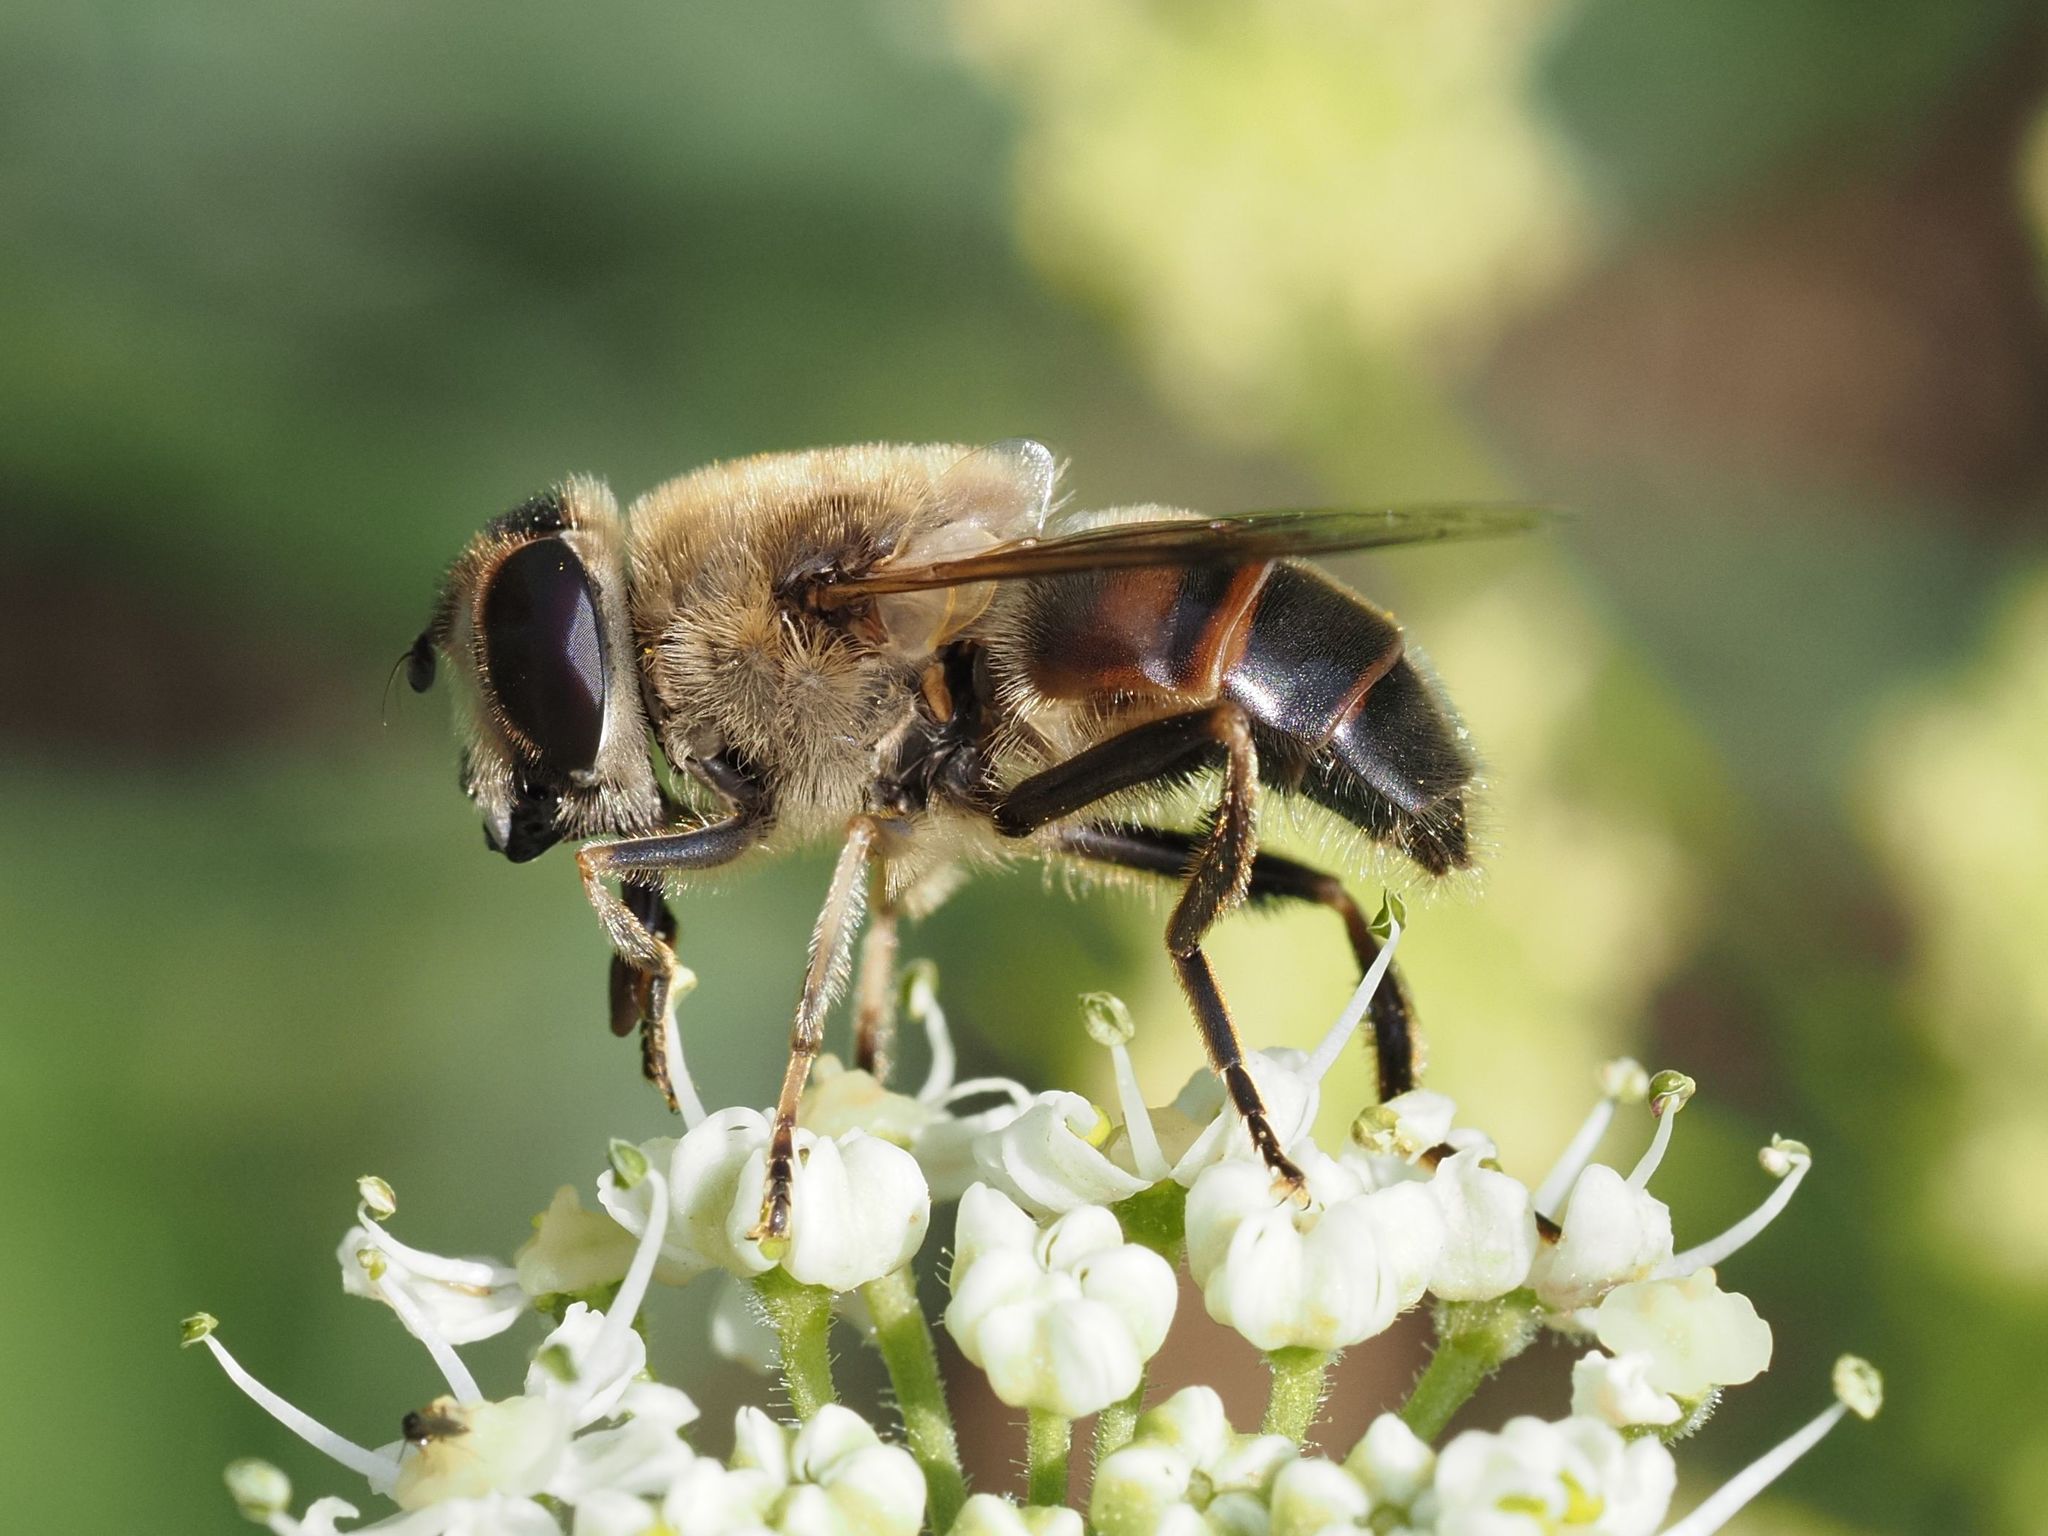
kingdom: Animalia
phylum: Arthropoda
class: Insecta
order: Diptera
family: Syrphidae
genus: Eristalis
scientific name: Eristalis tenax
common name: Drone fly
